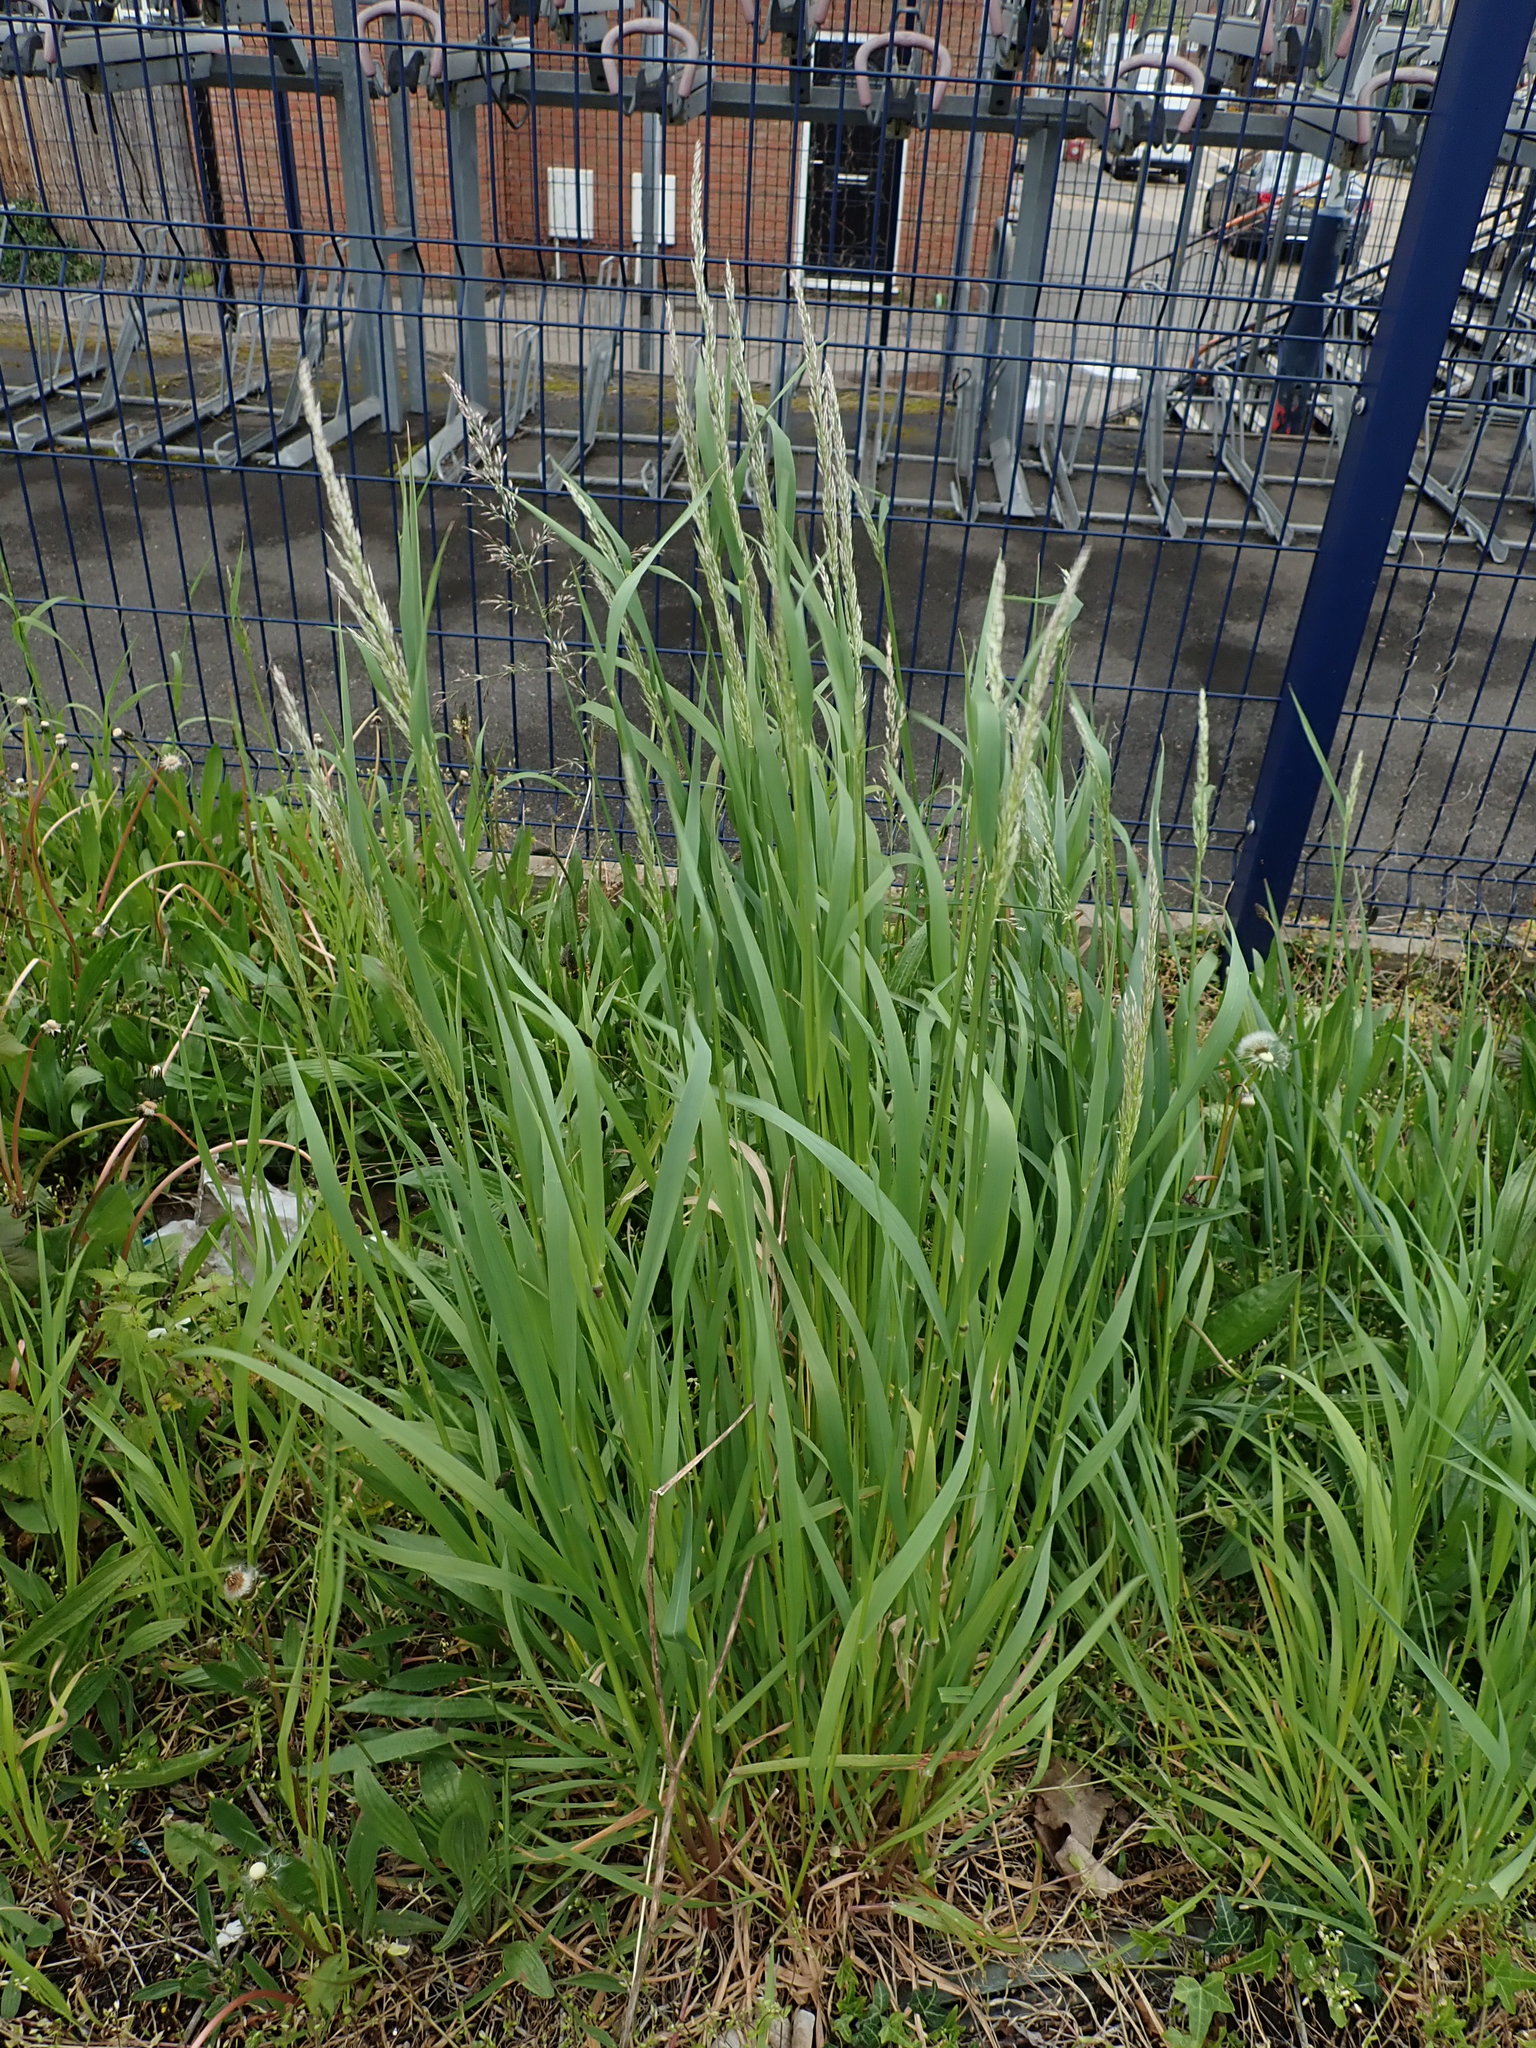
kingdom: Plantae
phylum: Tracheophyta
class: Liliopsida
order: Poales
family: Poaceae
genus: Arrhenatherum
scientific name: Arrhenatherum elatius
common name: Tall oatgrass
